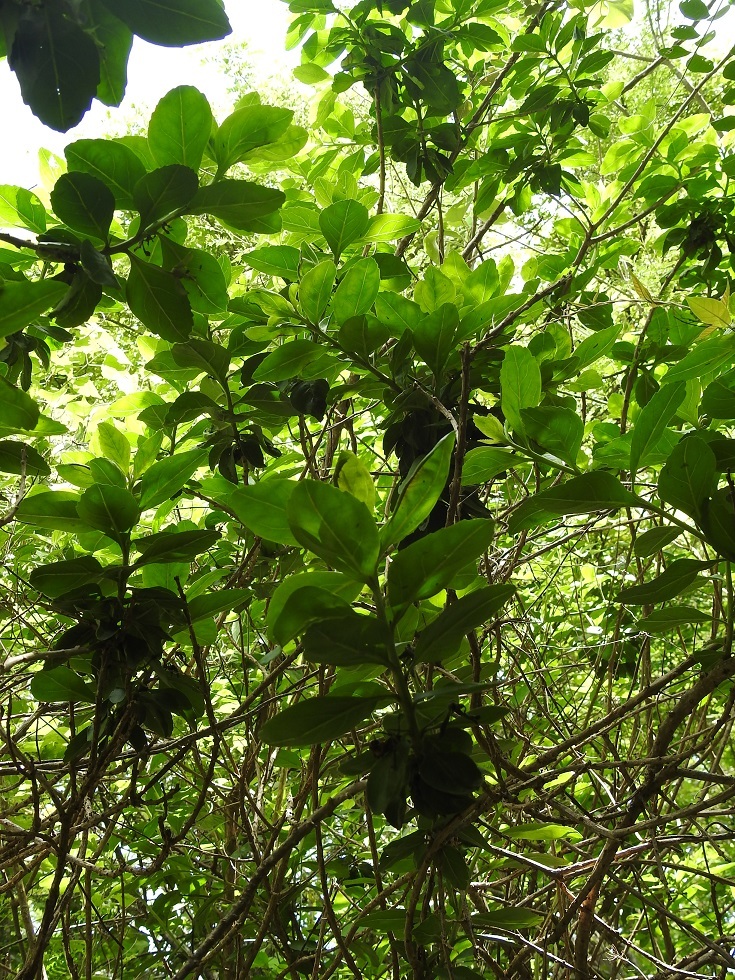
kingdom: Plantae
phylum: Tracheophyta
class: Magnoliopsida
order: Lamiales
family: Scrophulariaceae
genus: Eremogeton
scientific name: Eremogeton grandiflorus
